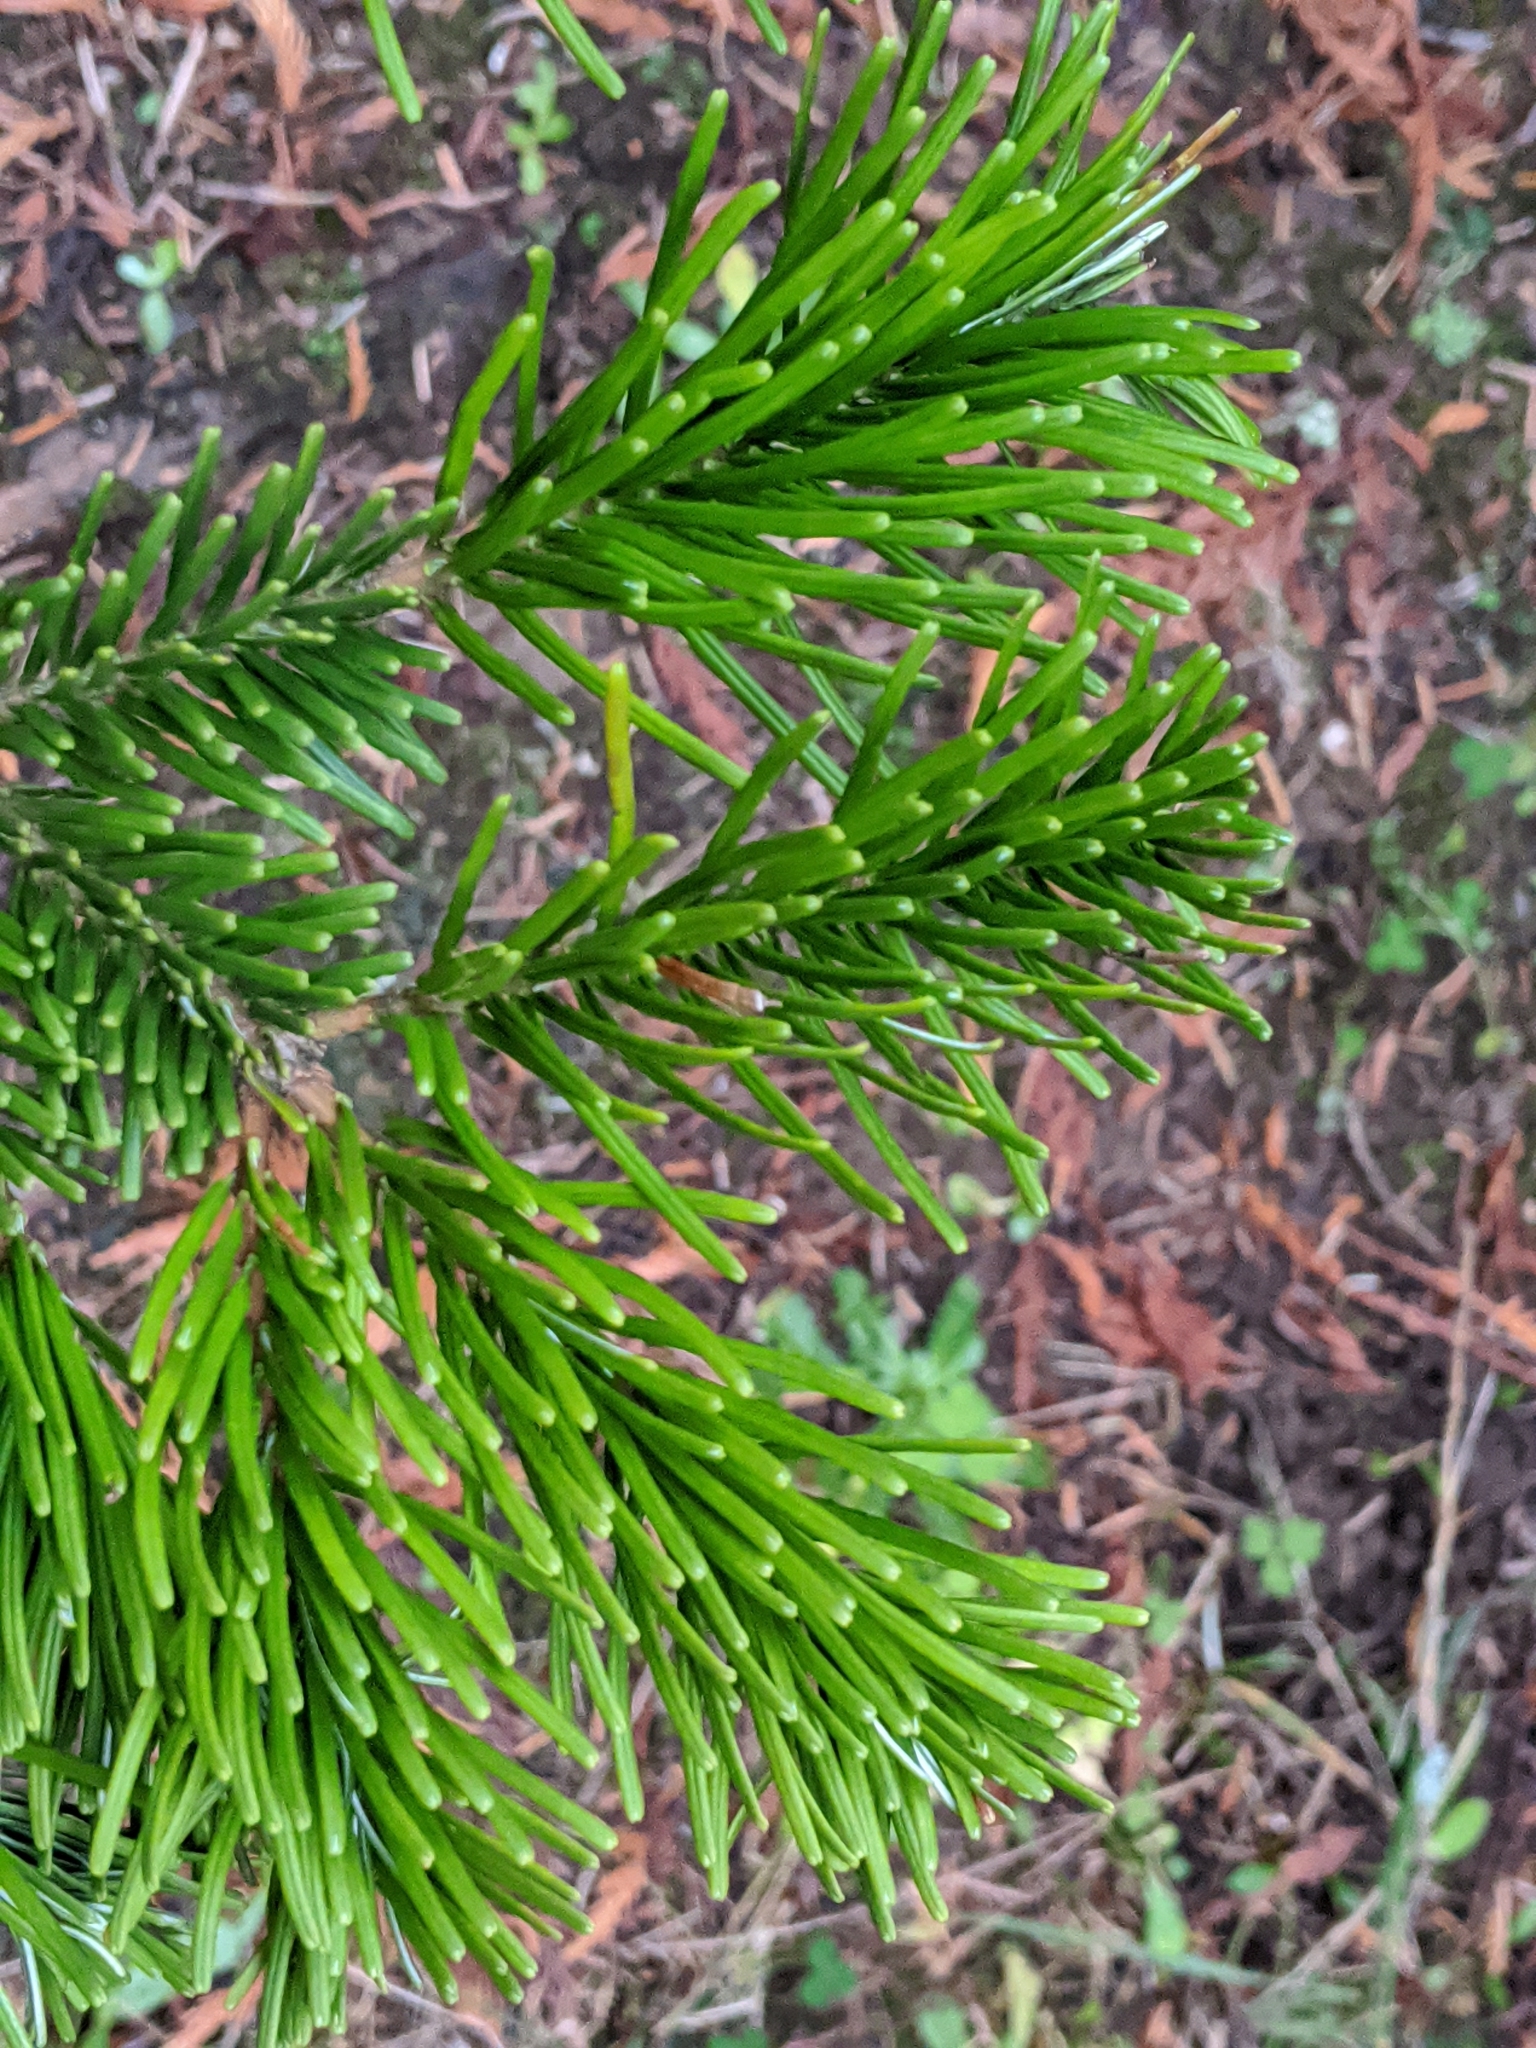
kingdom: Plantae
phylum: Tracheophyta
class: Pinopsida
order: Pinales
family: Pinaceae
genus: Abies
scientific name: Abies grandis
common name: Giant fir
